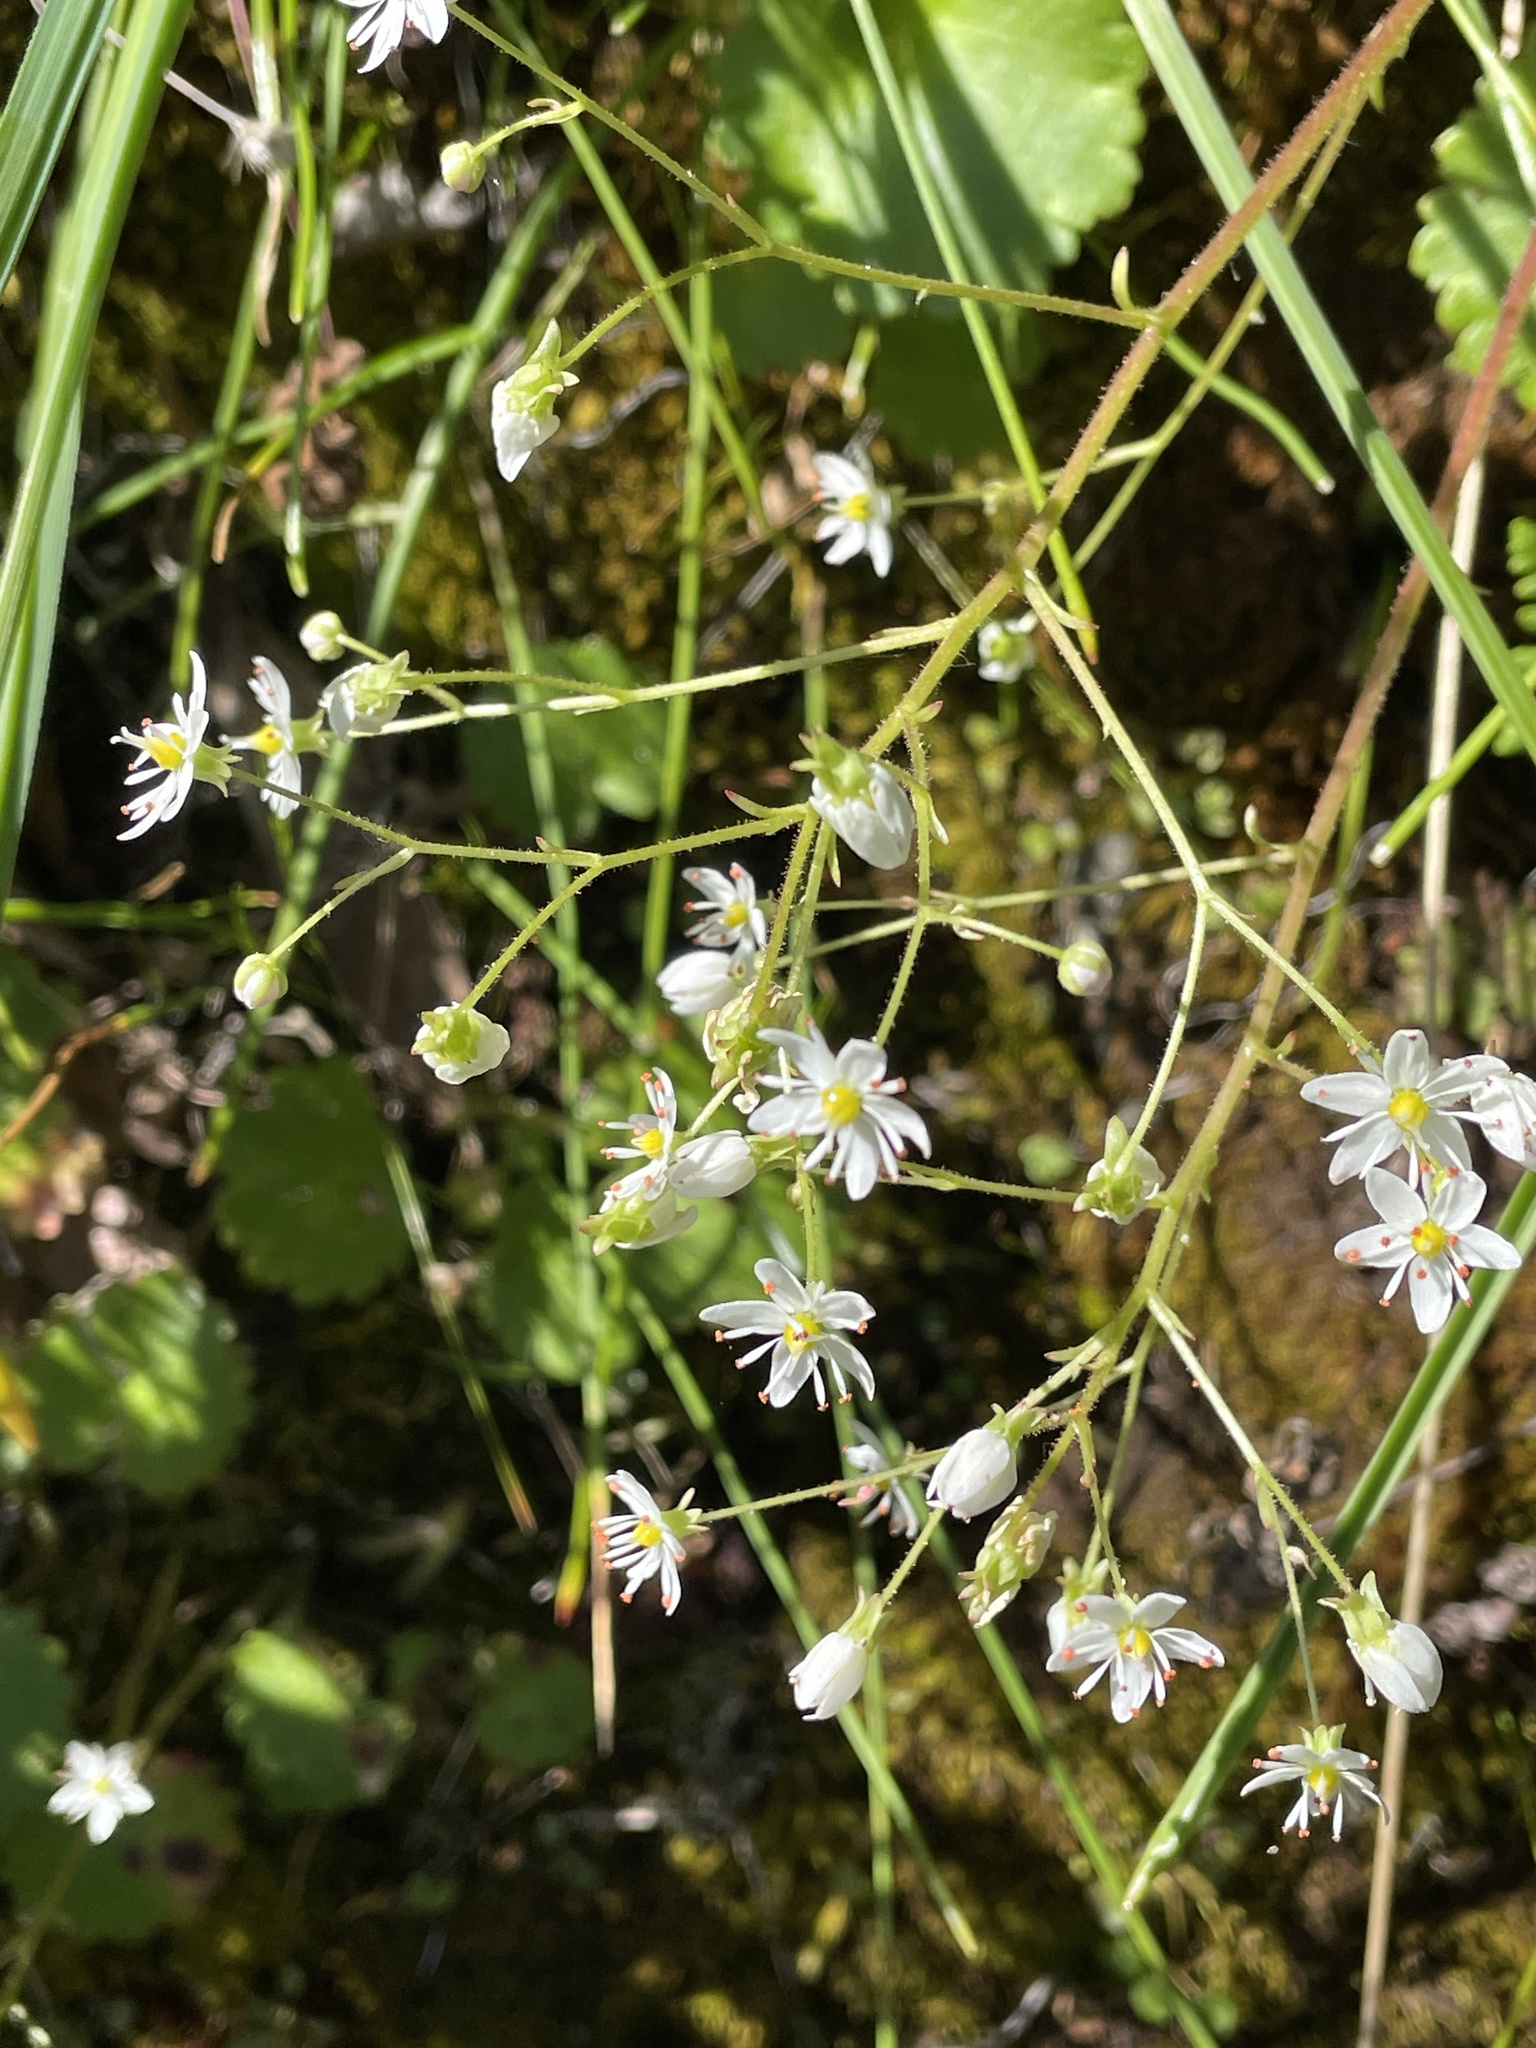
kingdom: Plantae
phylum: Tracheophyta
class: Magnoliopsida
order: Saxifragales
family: Saxifragaceae
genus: Micranthes
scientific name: Micranthes mertensiana
